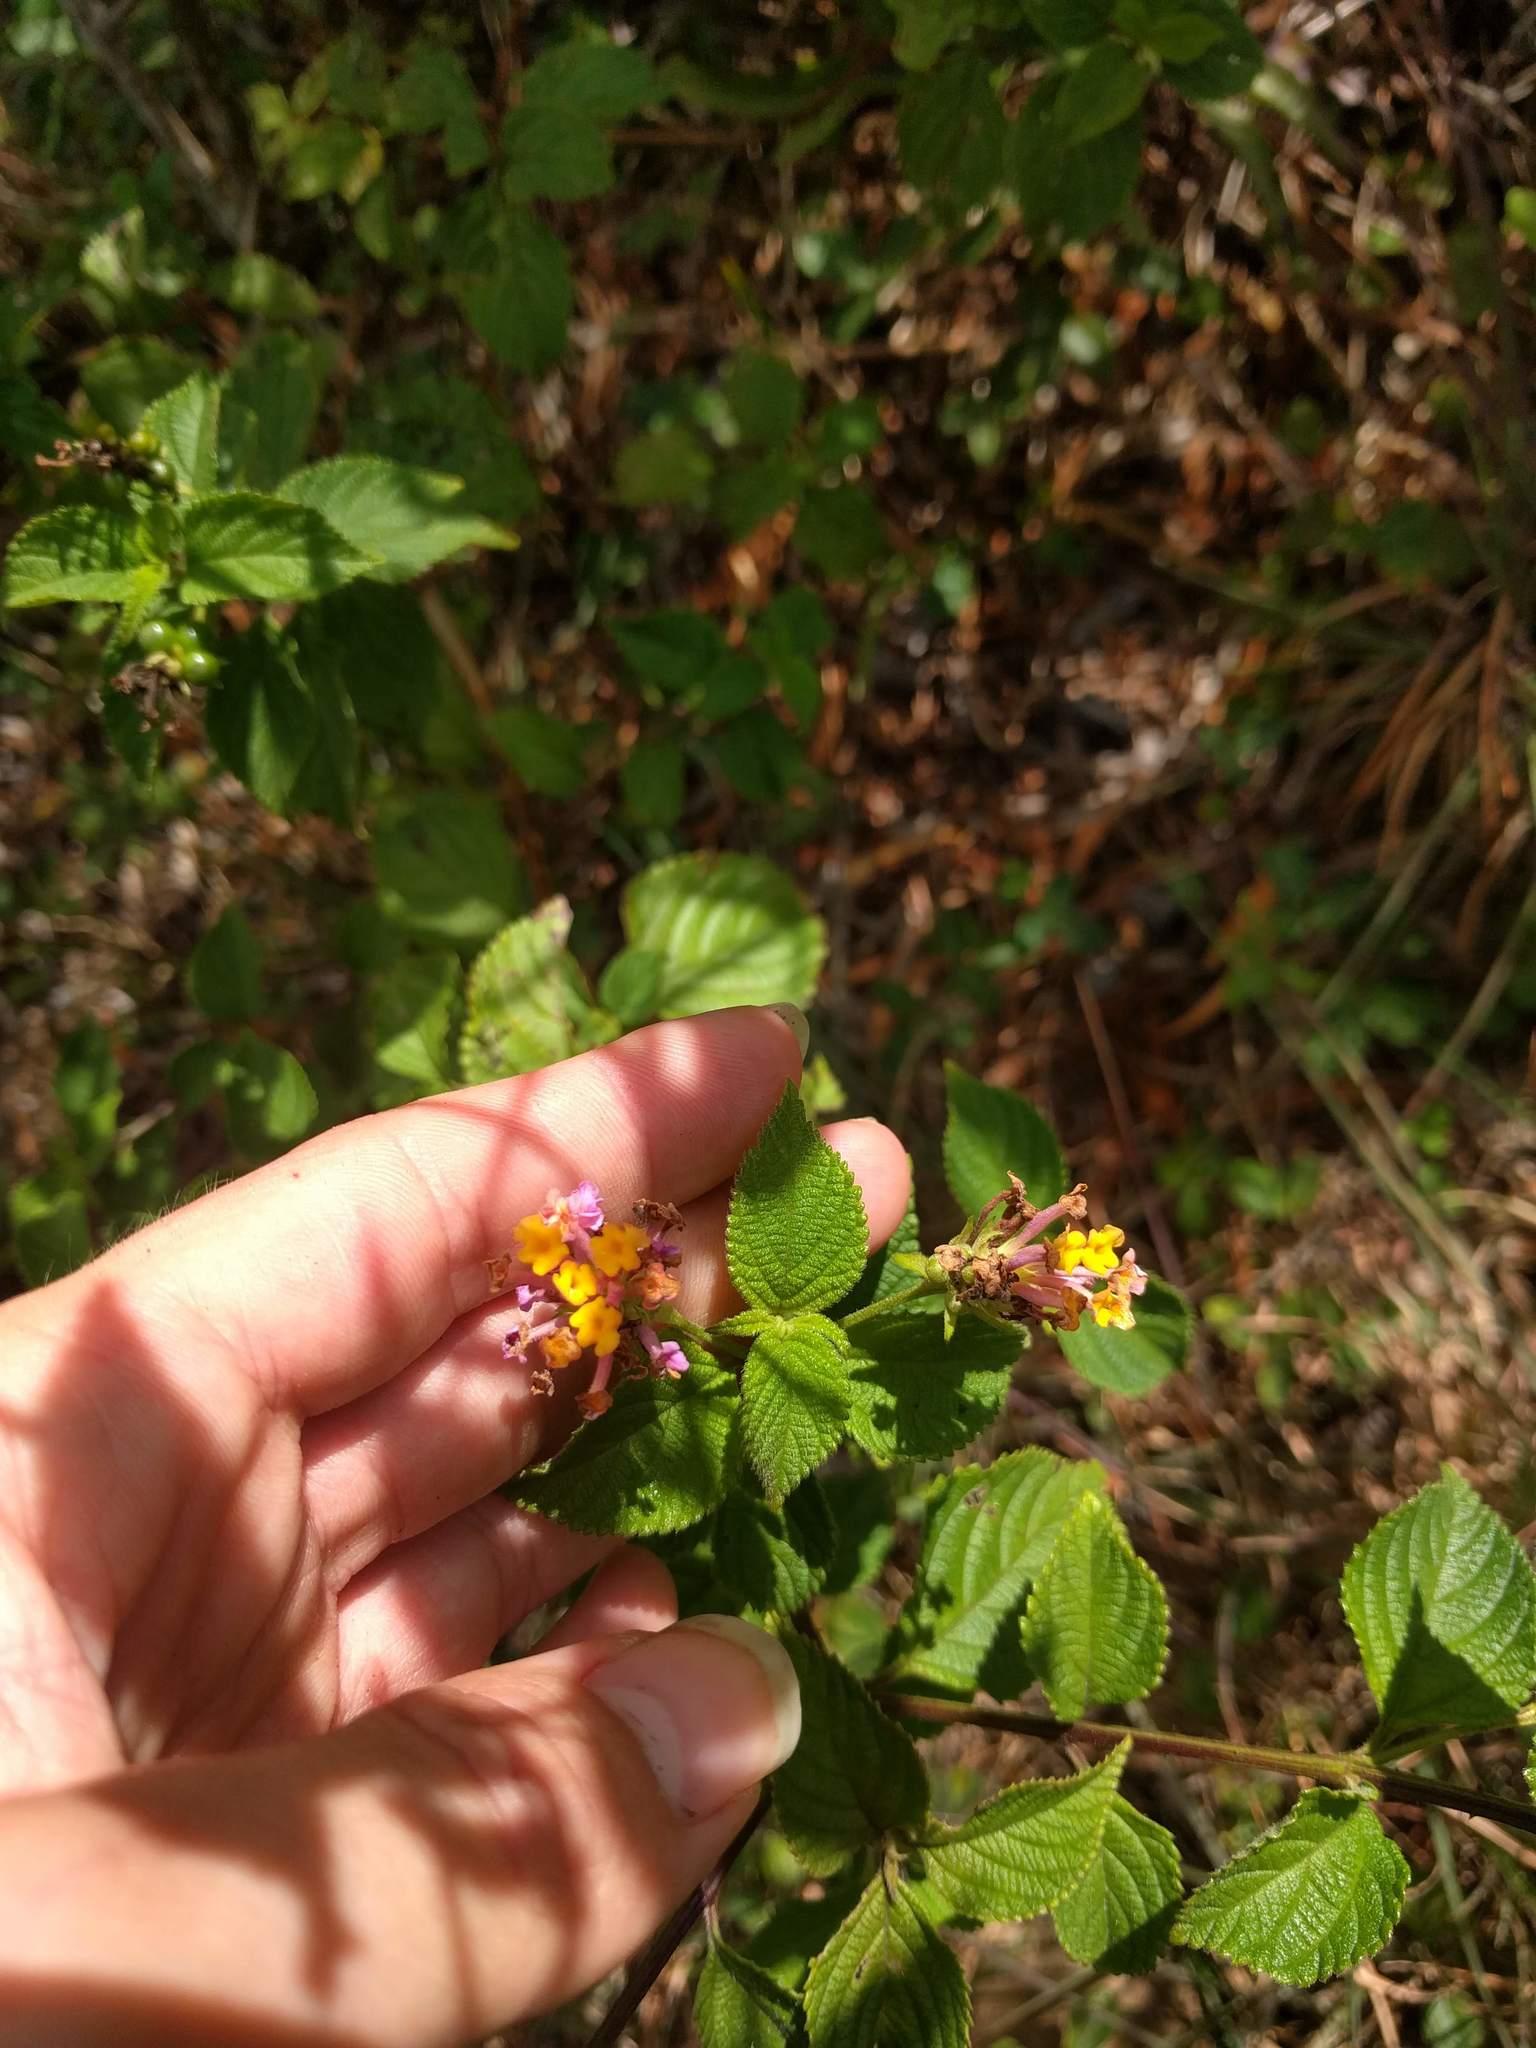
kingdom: Plantae
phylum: Tracheophyta
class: Magnoliopsida
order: Lamiales
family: Verbenaceae
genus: Lantana
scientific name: Lantana camara
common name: Lantana
